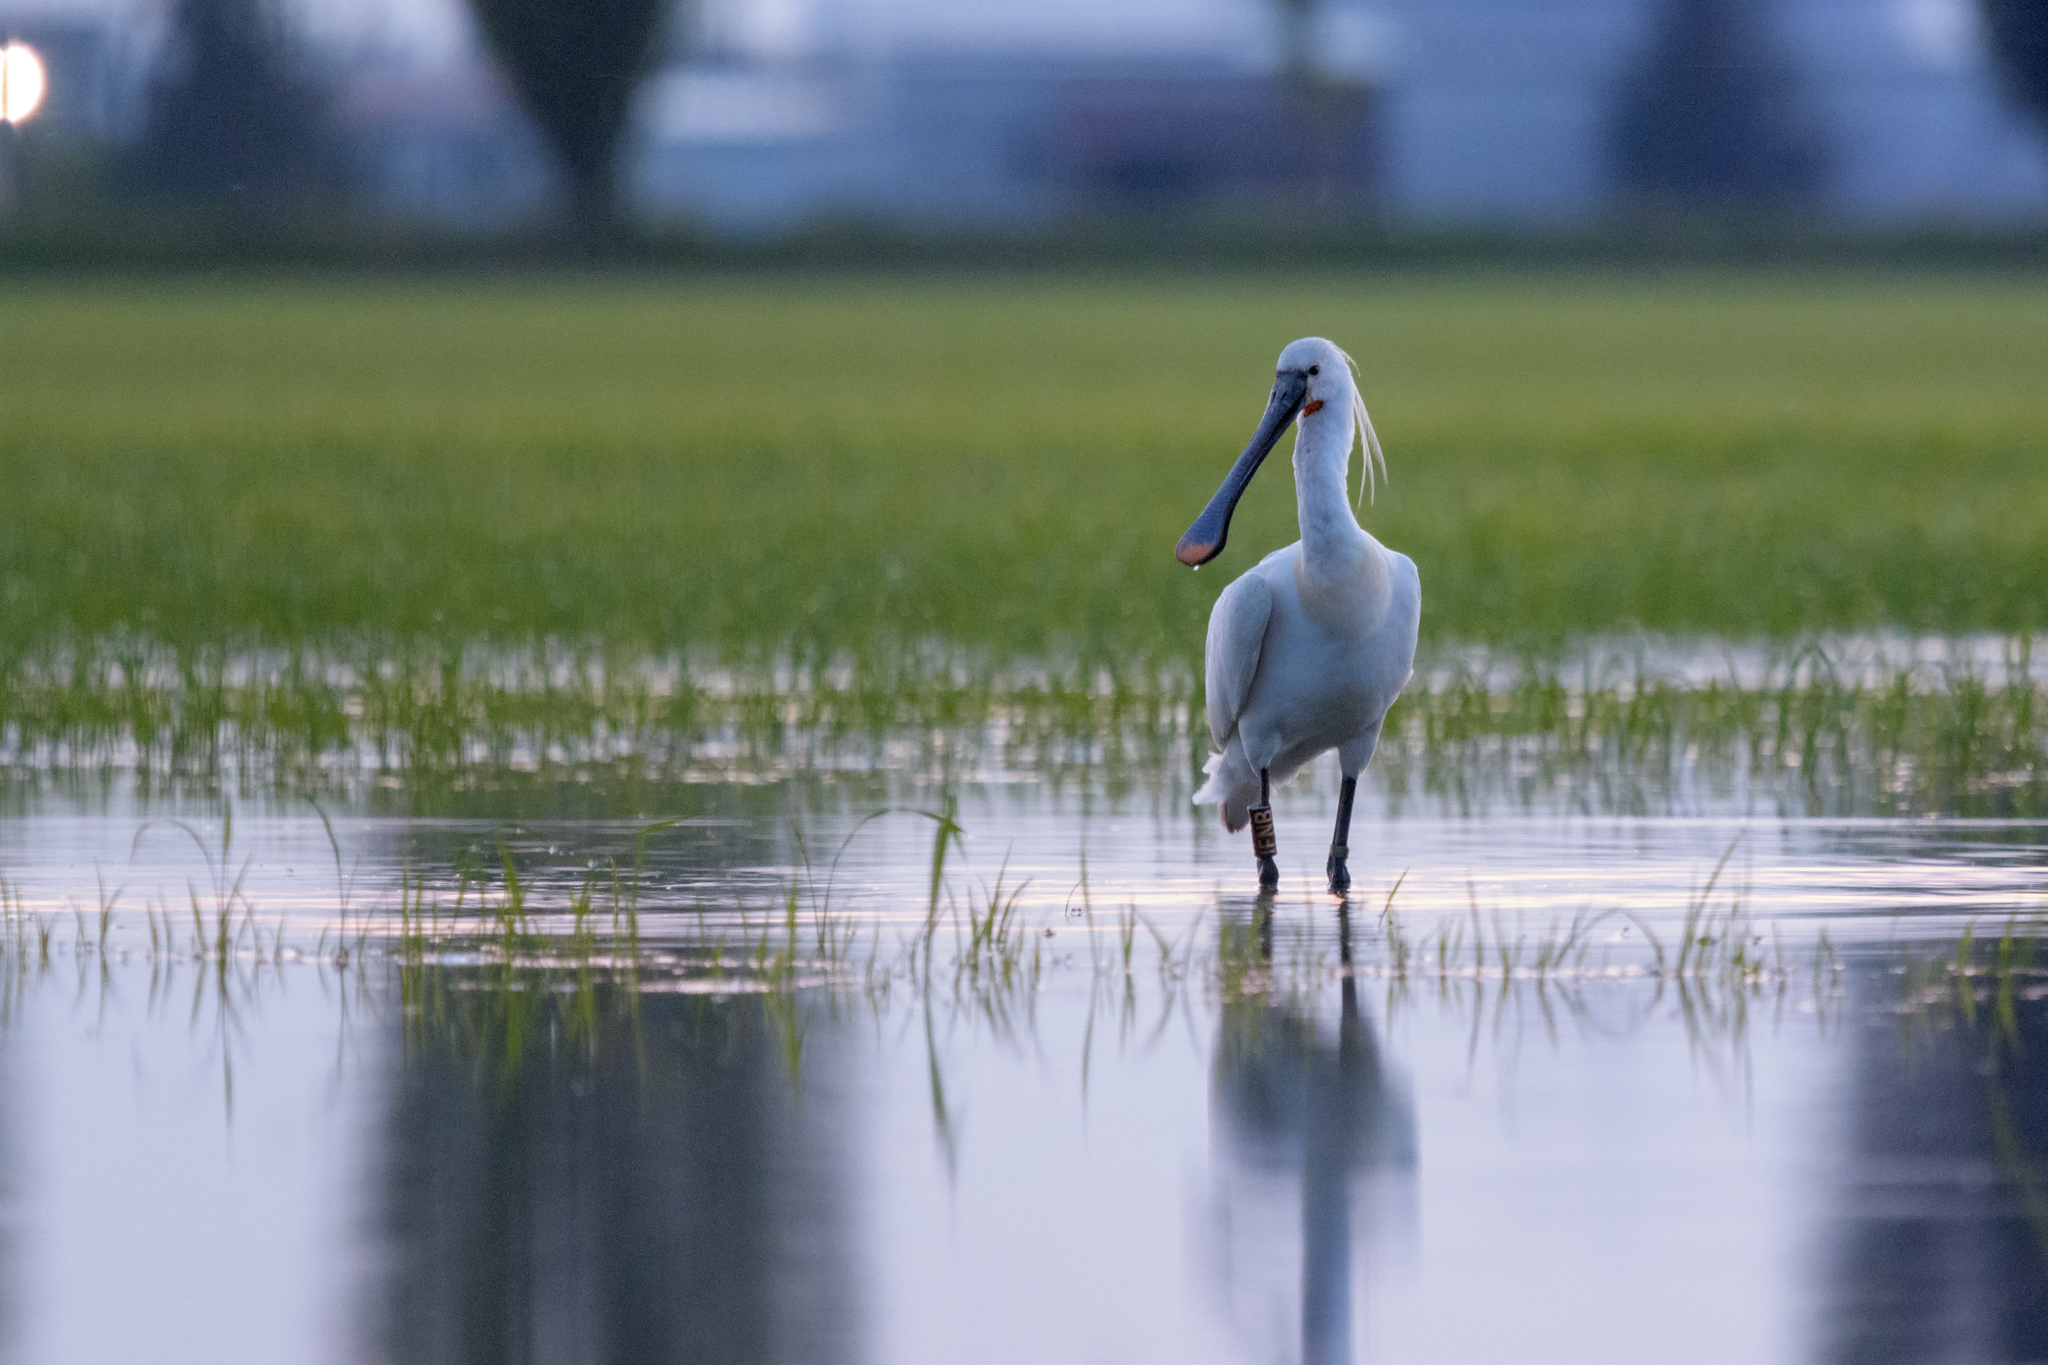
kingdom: Animalia
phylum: Chordata
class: Aves
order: Pelecaniformes
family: Threskiornithidae
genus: Platalea
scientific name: Platalea leucorodia
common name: Eurasian spoonbill
